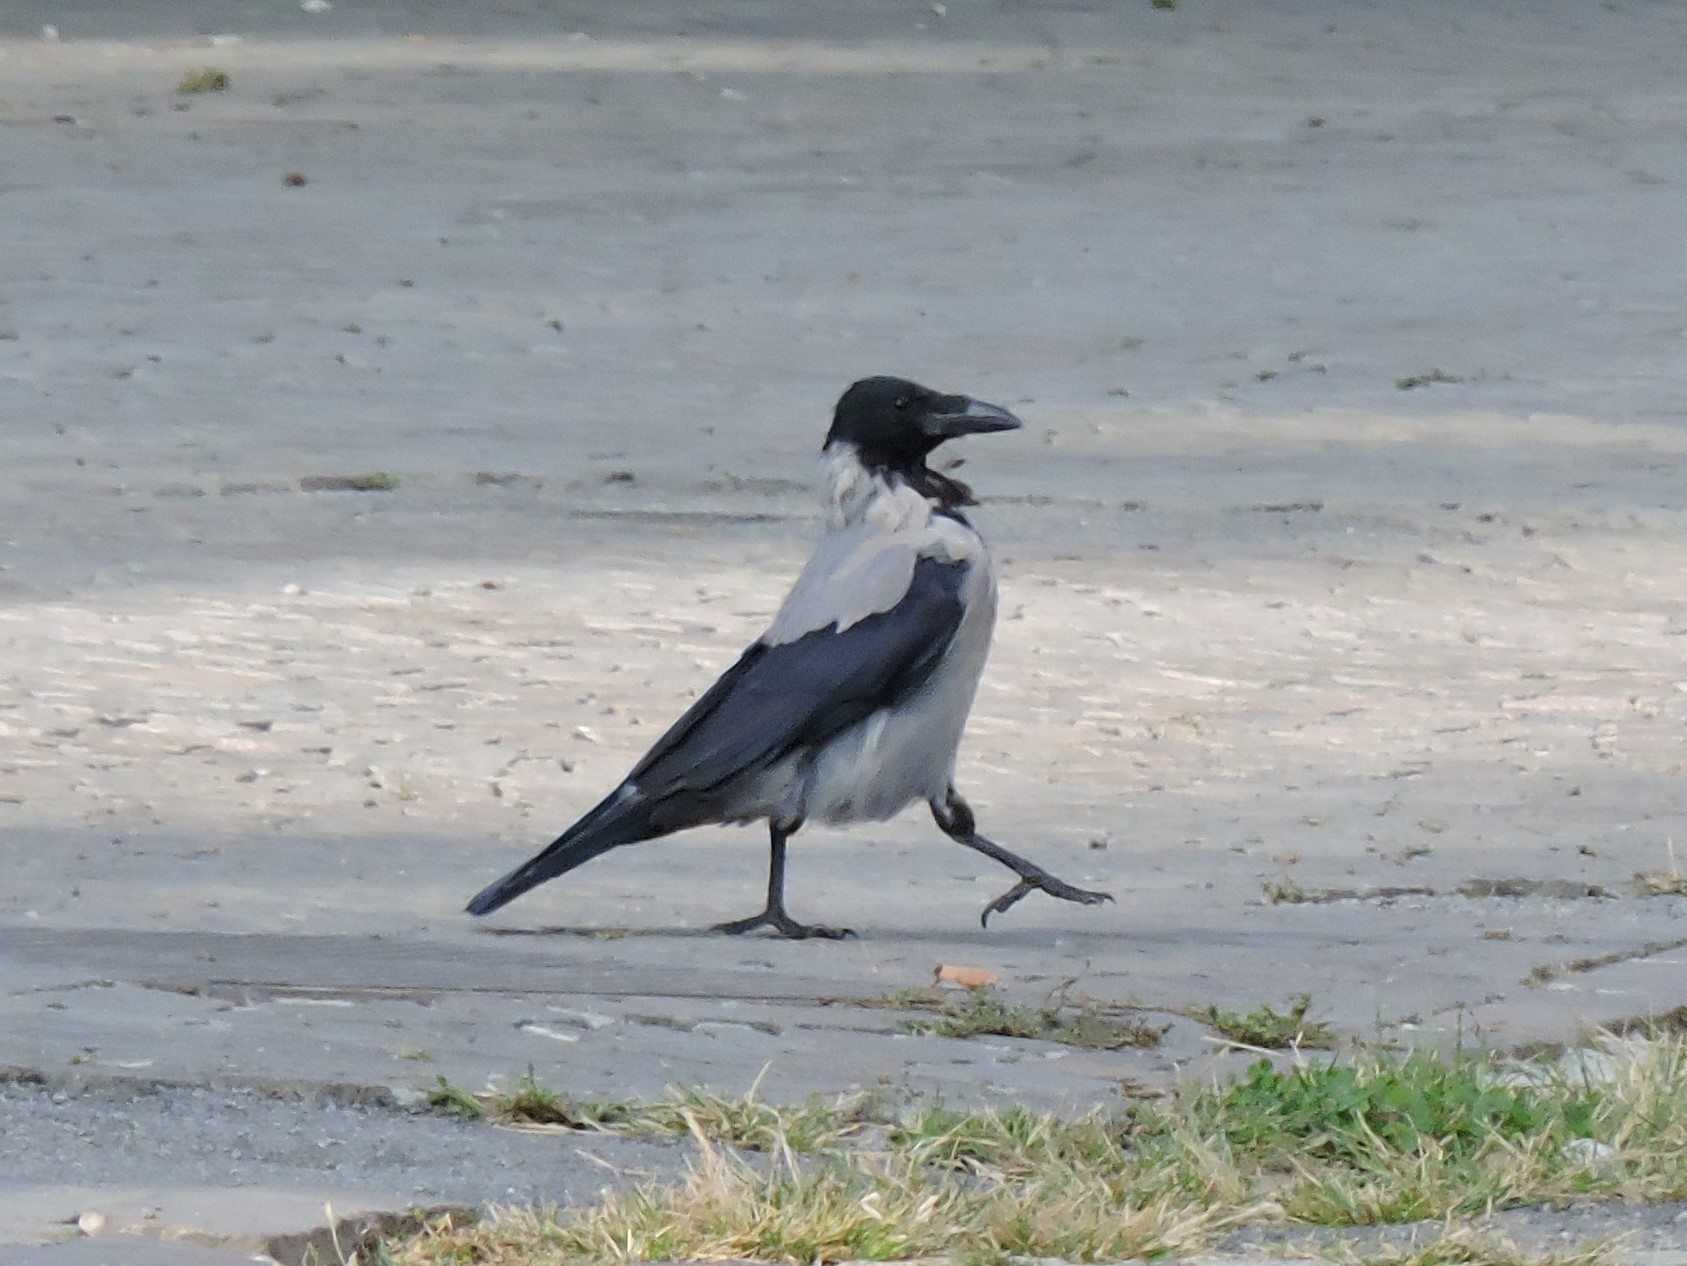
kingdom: Animalia
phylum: Chordata
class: Aves
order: Passeriformes
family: Corvidae
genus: Corvus
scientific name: Corvus cornix
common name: Hooded crow
